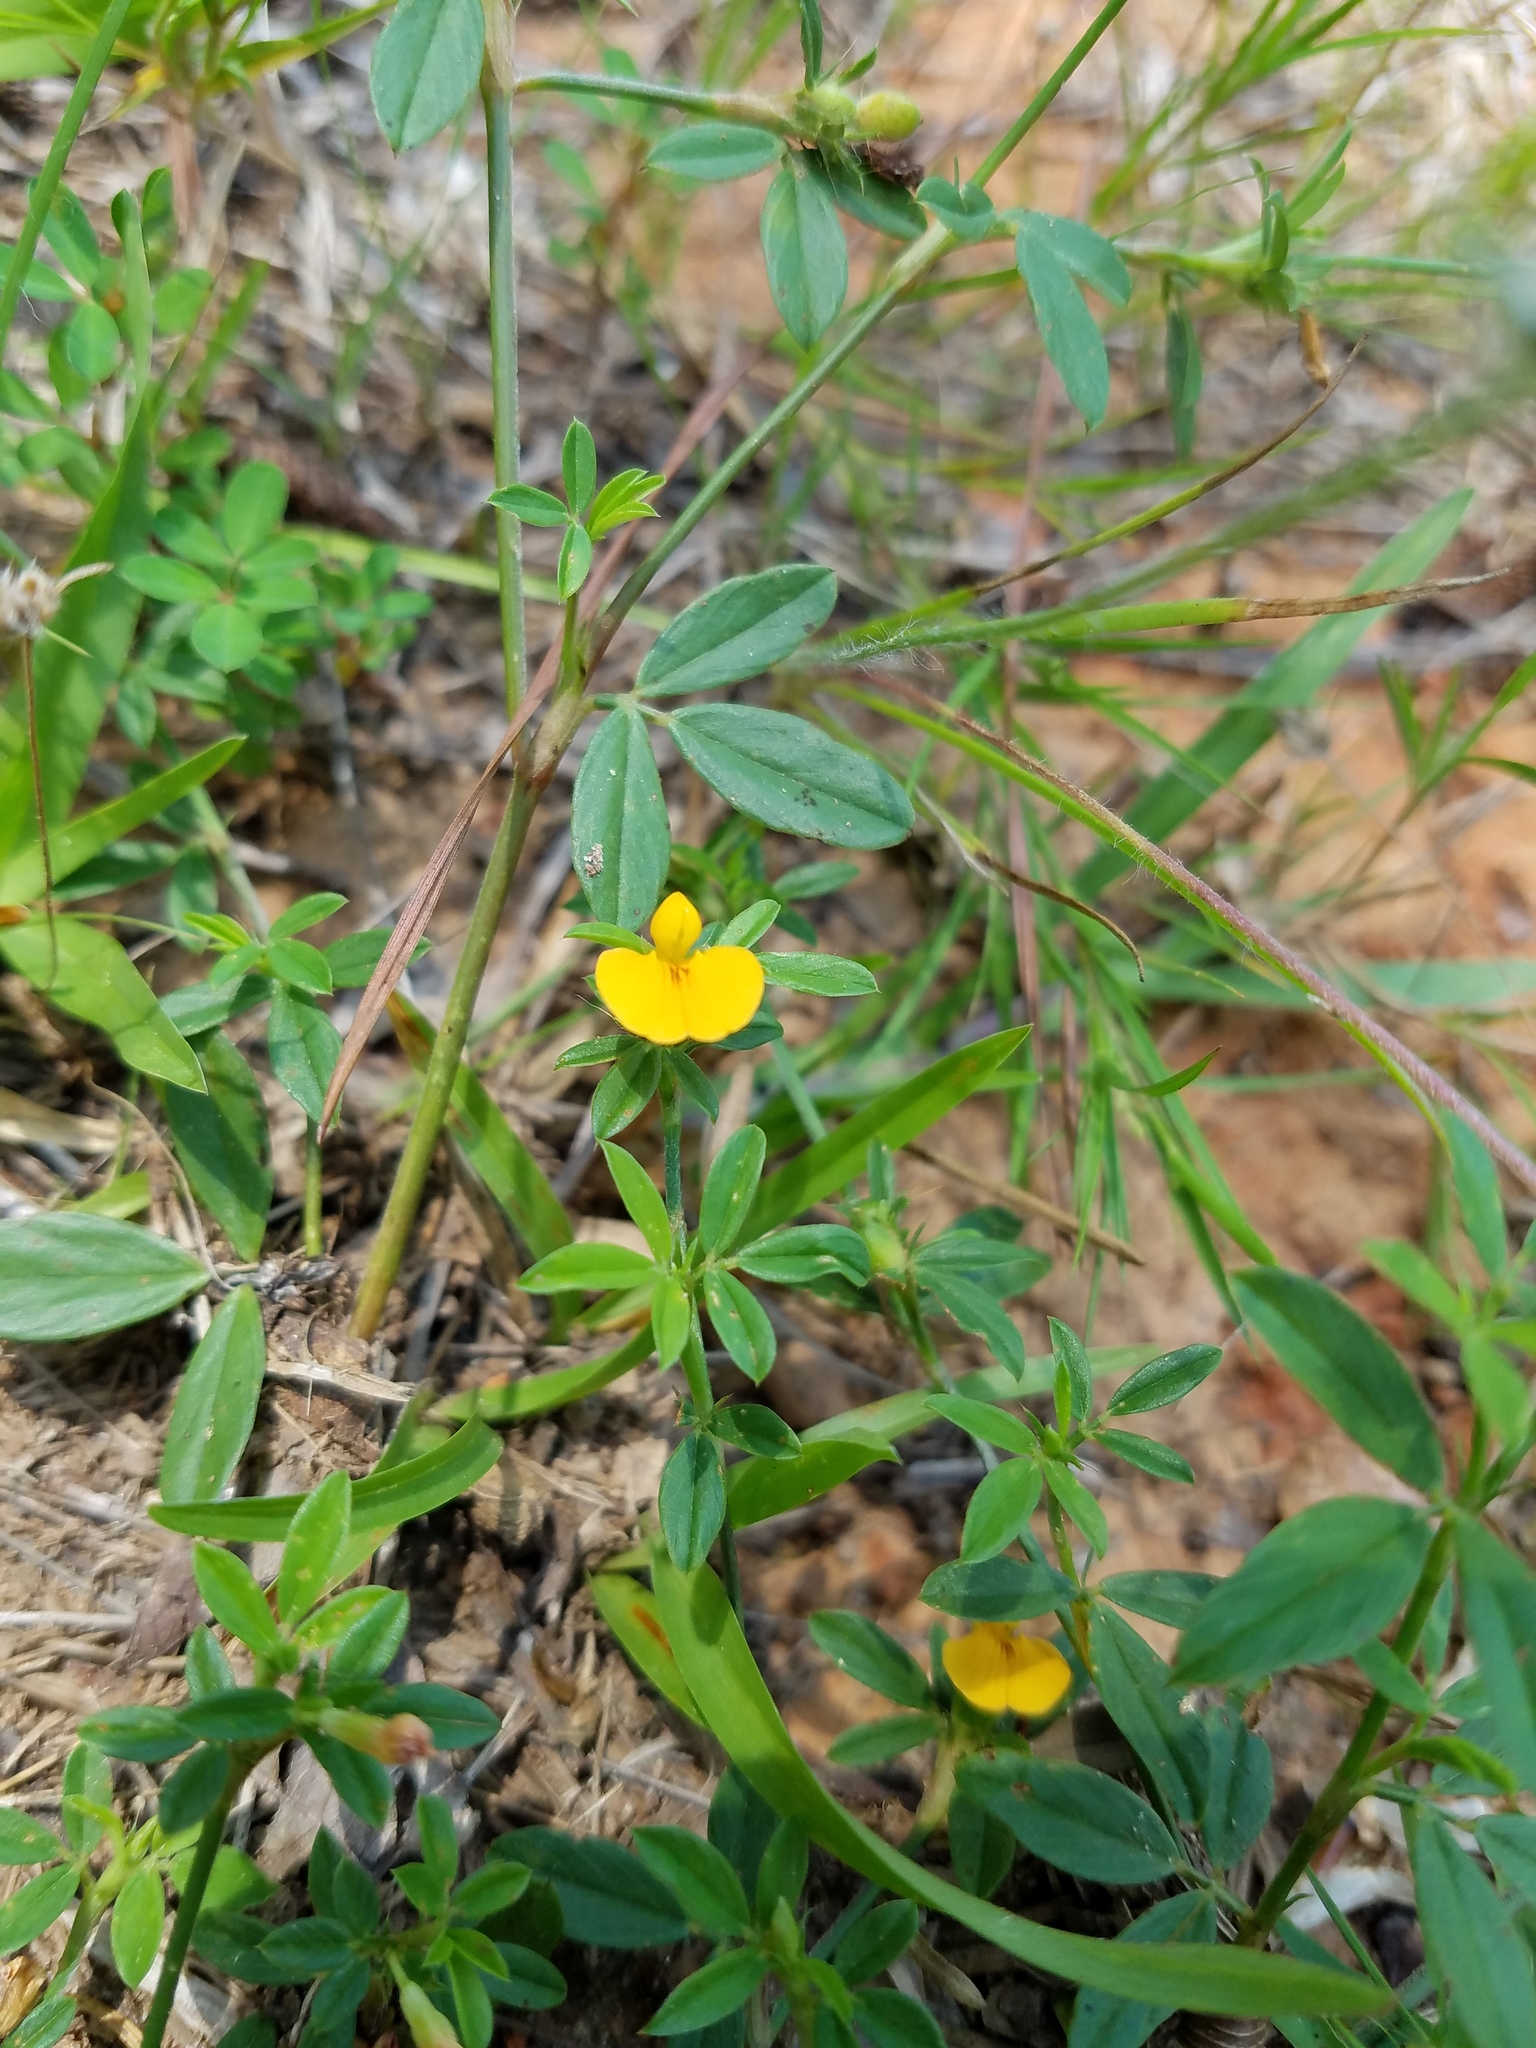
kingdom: Plantae
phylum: Tracheophyta
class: Magnoliopsida
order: Fabales
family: Fabaceae
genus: Stylosanthes
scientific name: Stylosanthes biflora
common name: Two-flower pencil-flower
